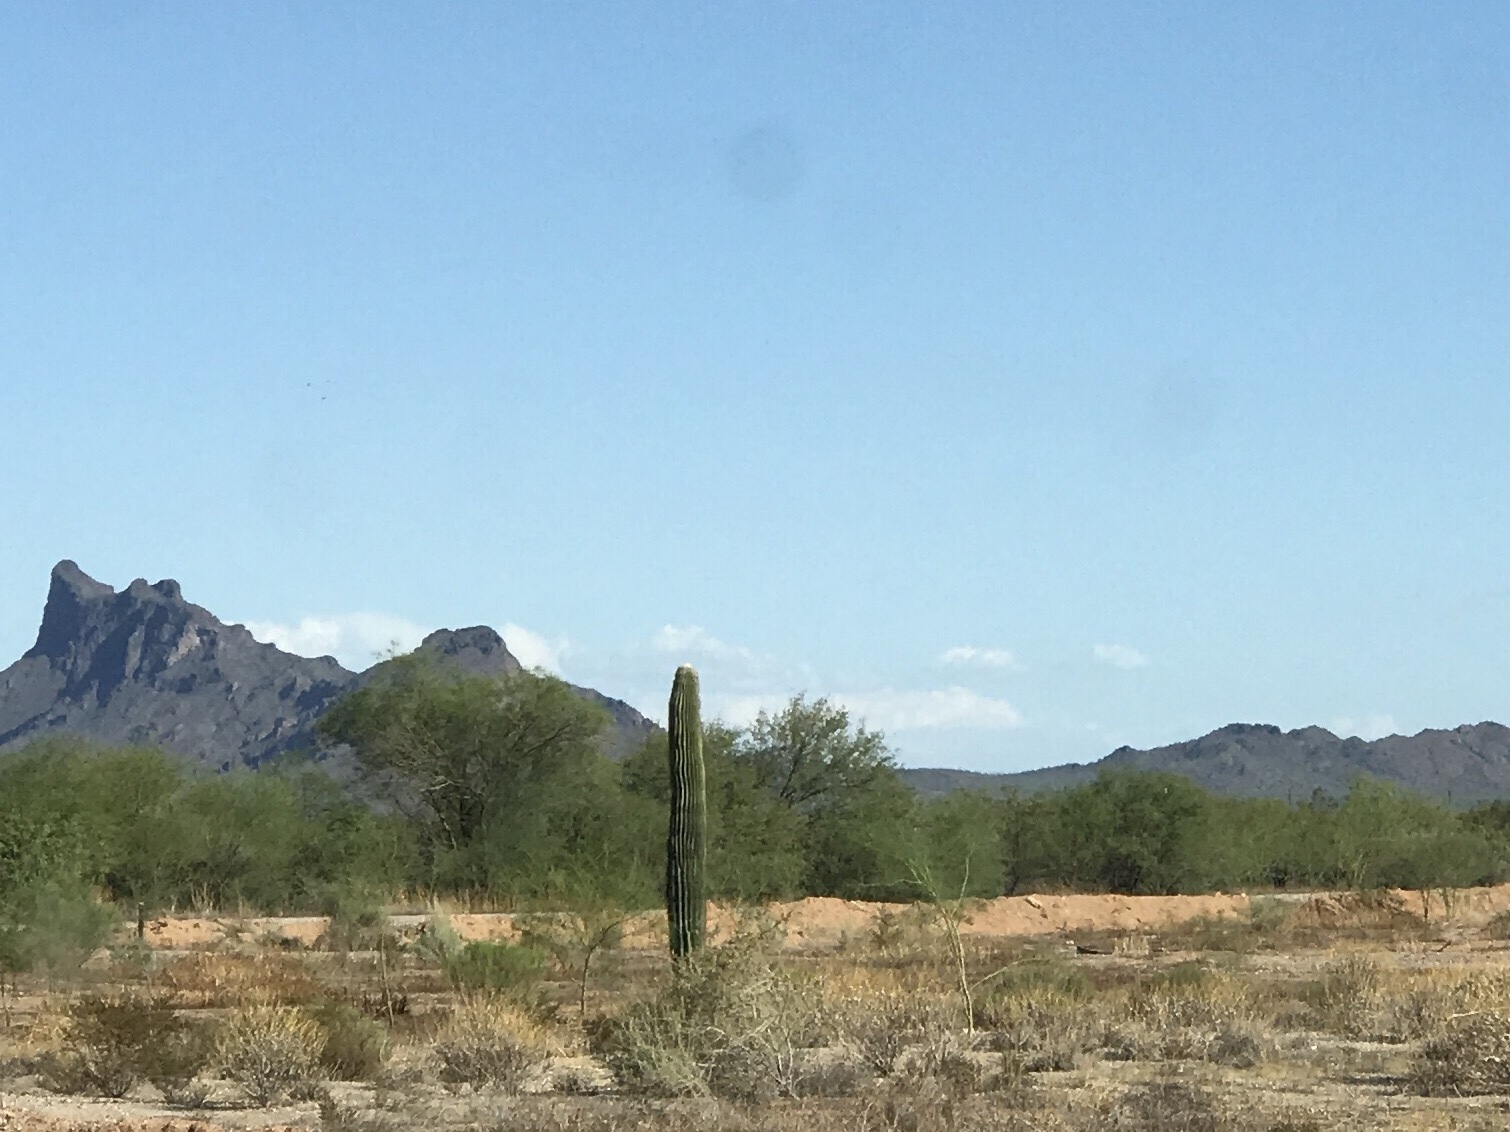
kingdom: Plantae
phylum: Tracheophyta
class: Magnoliopsida
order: Caryophyllales
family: Cactaceae
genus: Carnegiea
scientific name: Carnegiea gigantea
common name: Saguaro
